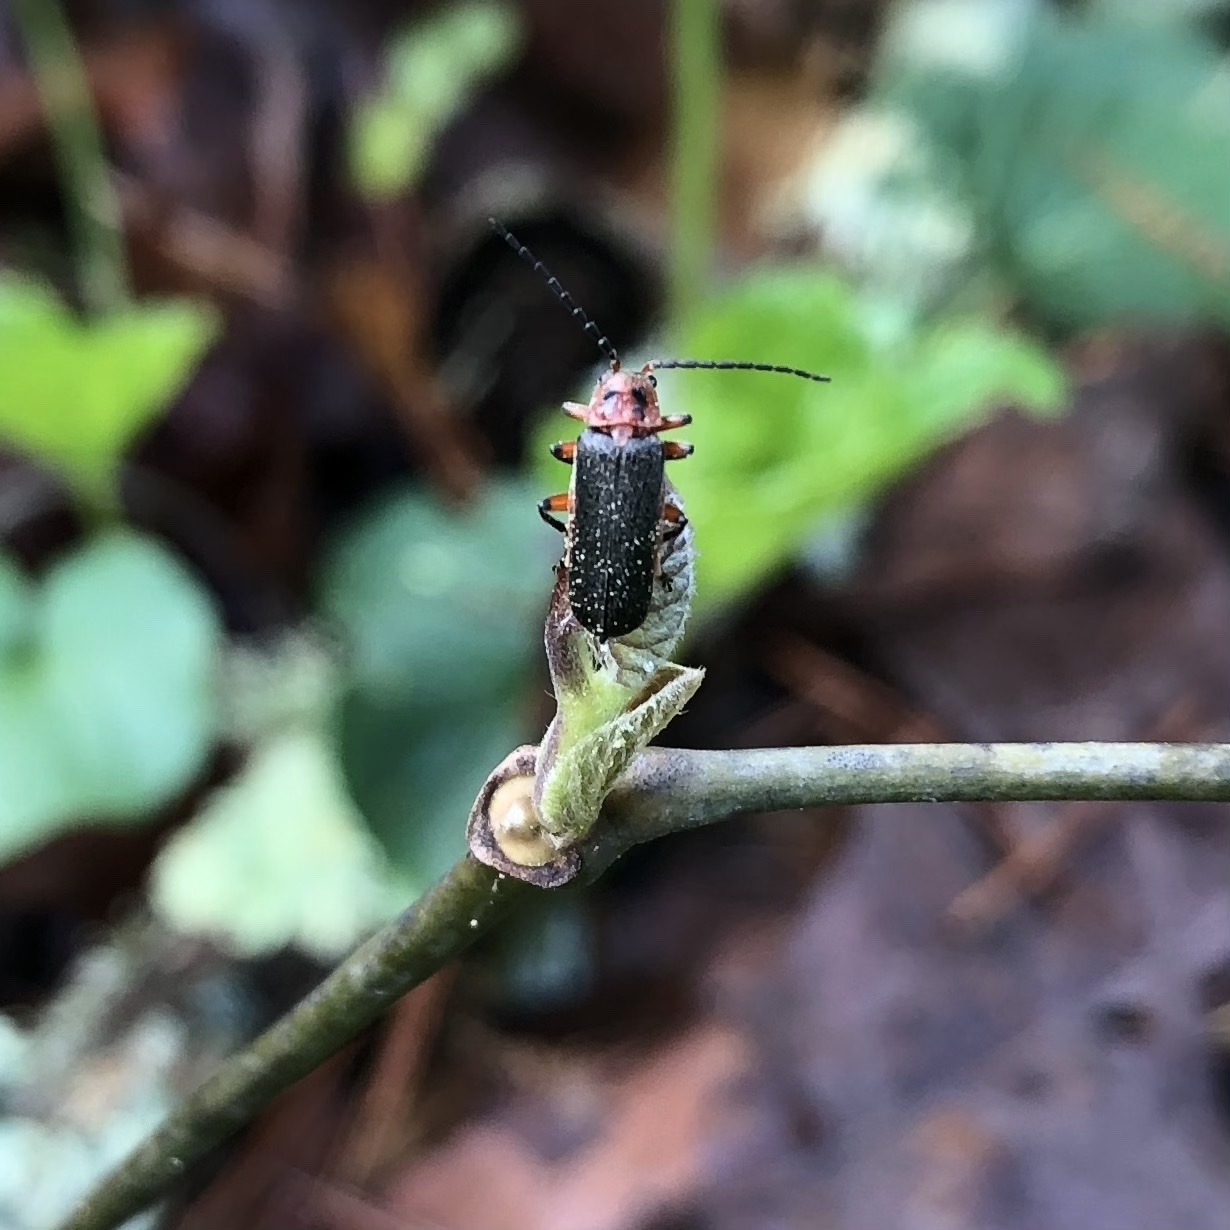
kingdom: Animalia
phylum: Arthropoda
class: Insecta
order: Coleoptera
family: Cantharidae
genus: Atalantycha
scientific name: Atalantycha bilineata
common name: Two-lined leatherwing
